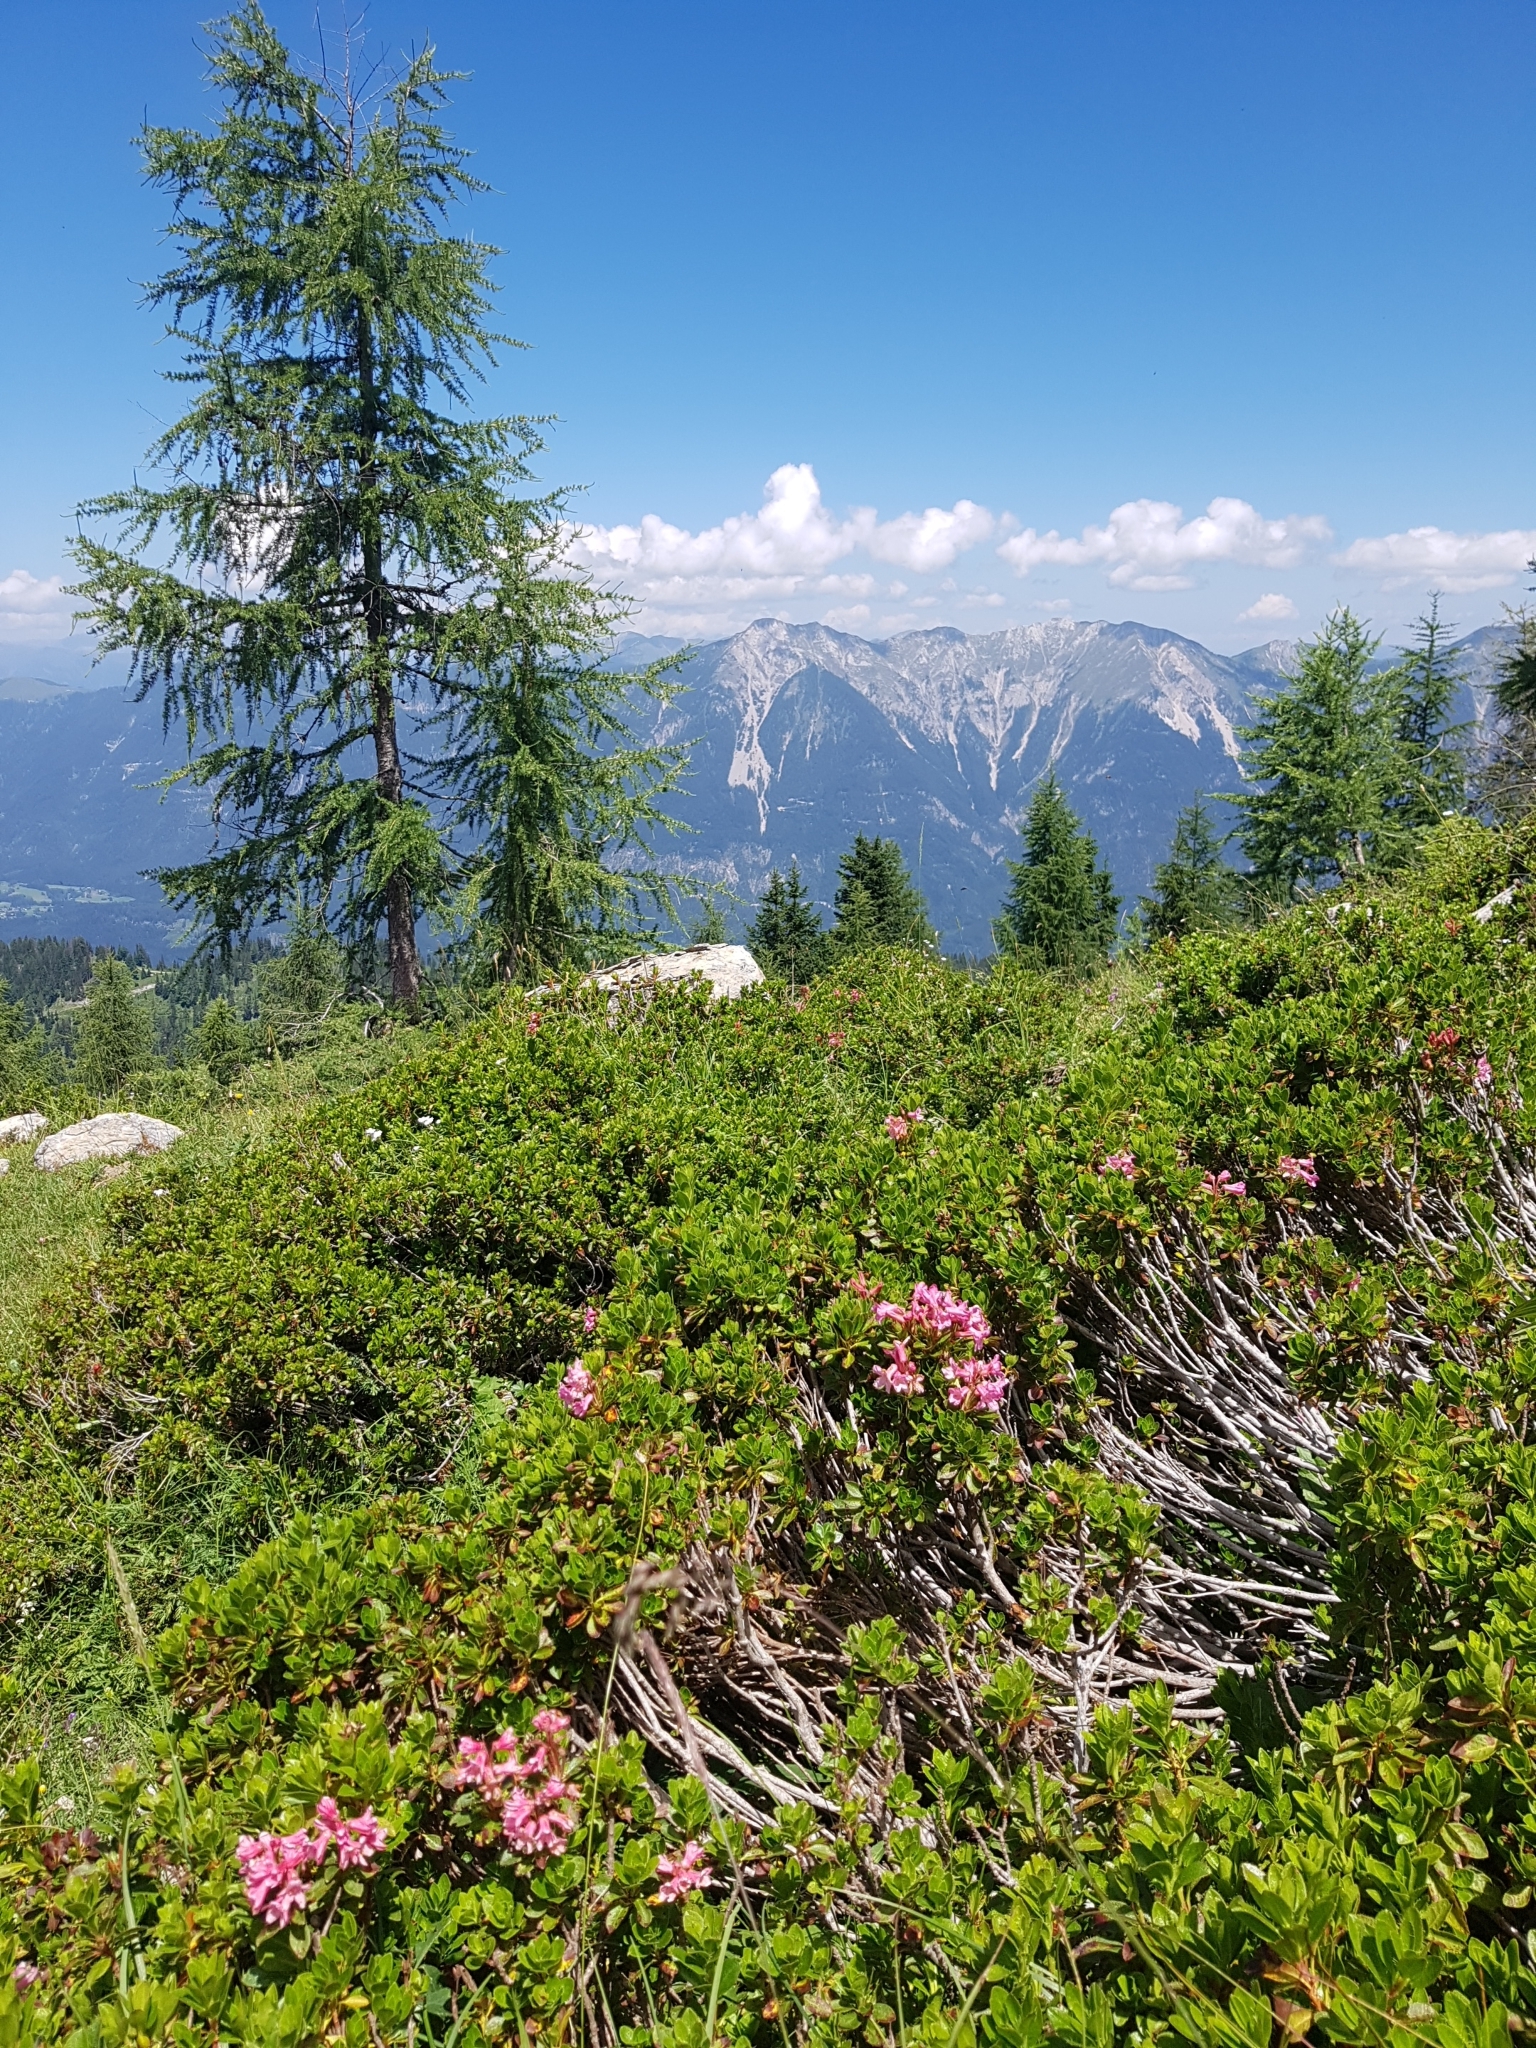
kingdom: Plantae
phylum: Tracheophyta
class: Magnoliopsida
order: Ericales
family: Ericaceae
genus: Rhododendron
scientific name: Rhododendron hirsutum
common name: Hairy alpenrose
